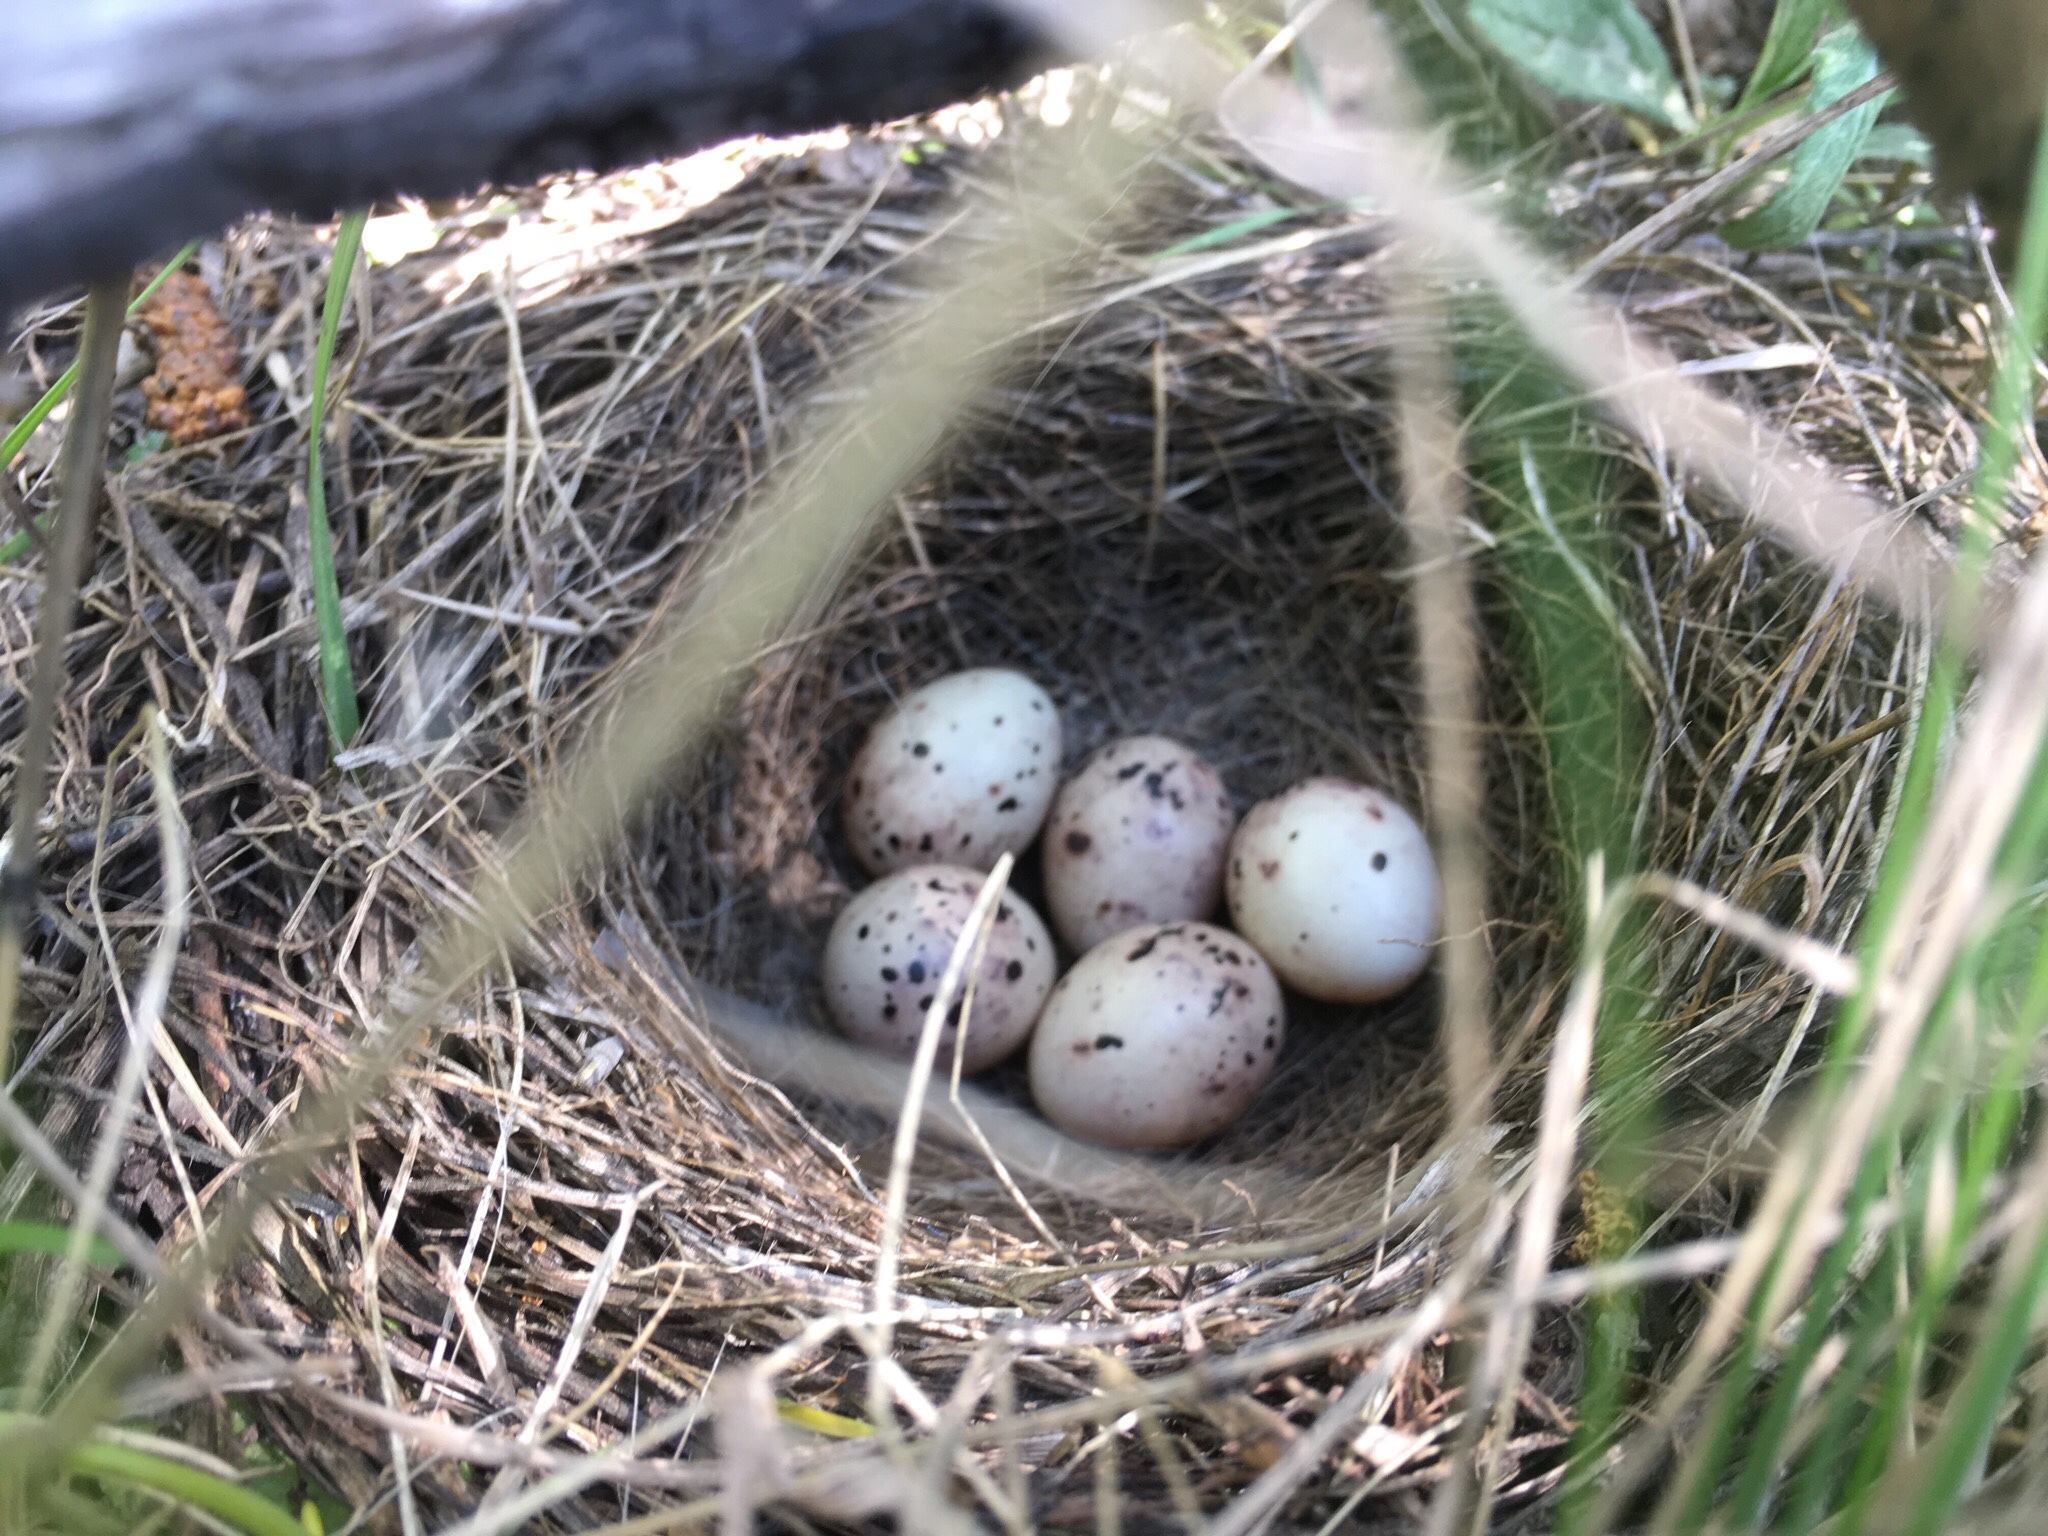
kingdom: Animalia
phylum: Chordata
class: Aves
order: Passeriformes
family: Emberizidae
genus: Emberiza
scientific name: Emberiza citrinella
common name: Yellowhammer
